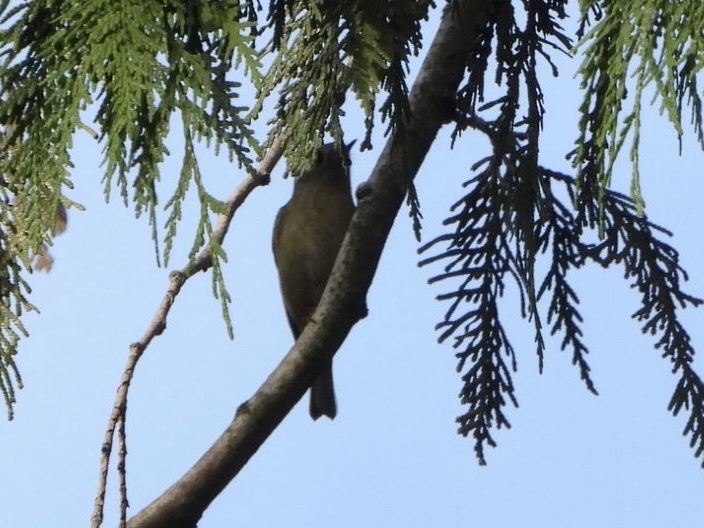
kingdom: Animalia
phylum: Chordata
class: Aves
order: Passeriformes
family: Regulidae
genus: Regulus
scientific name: Regulus calendula
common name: Ruby-crowned kinglet
